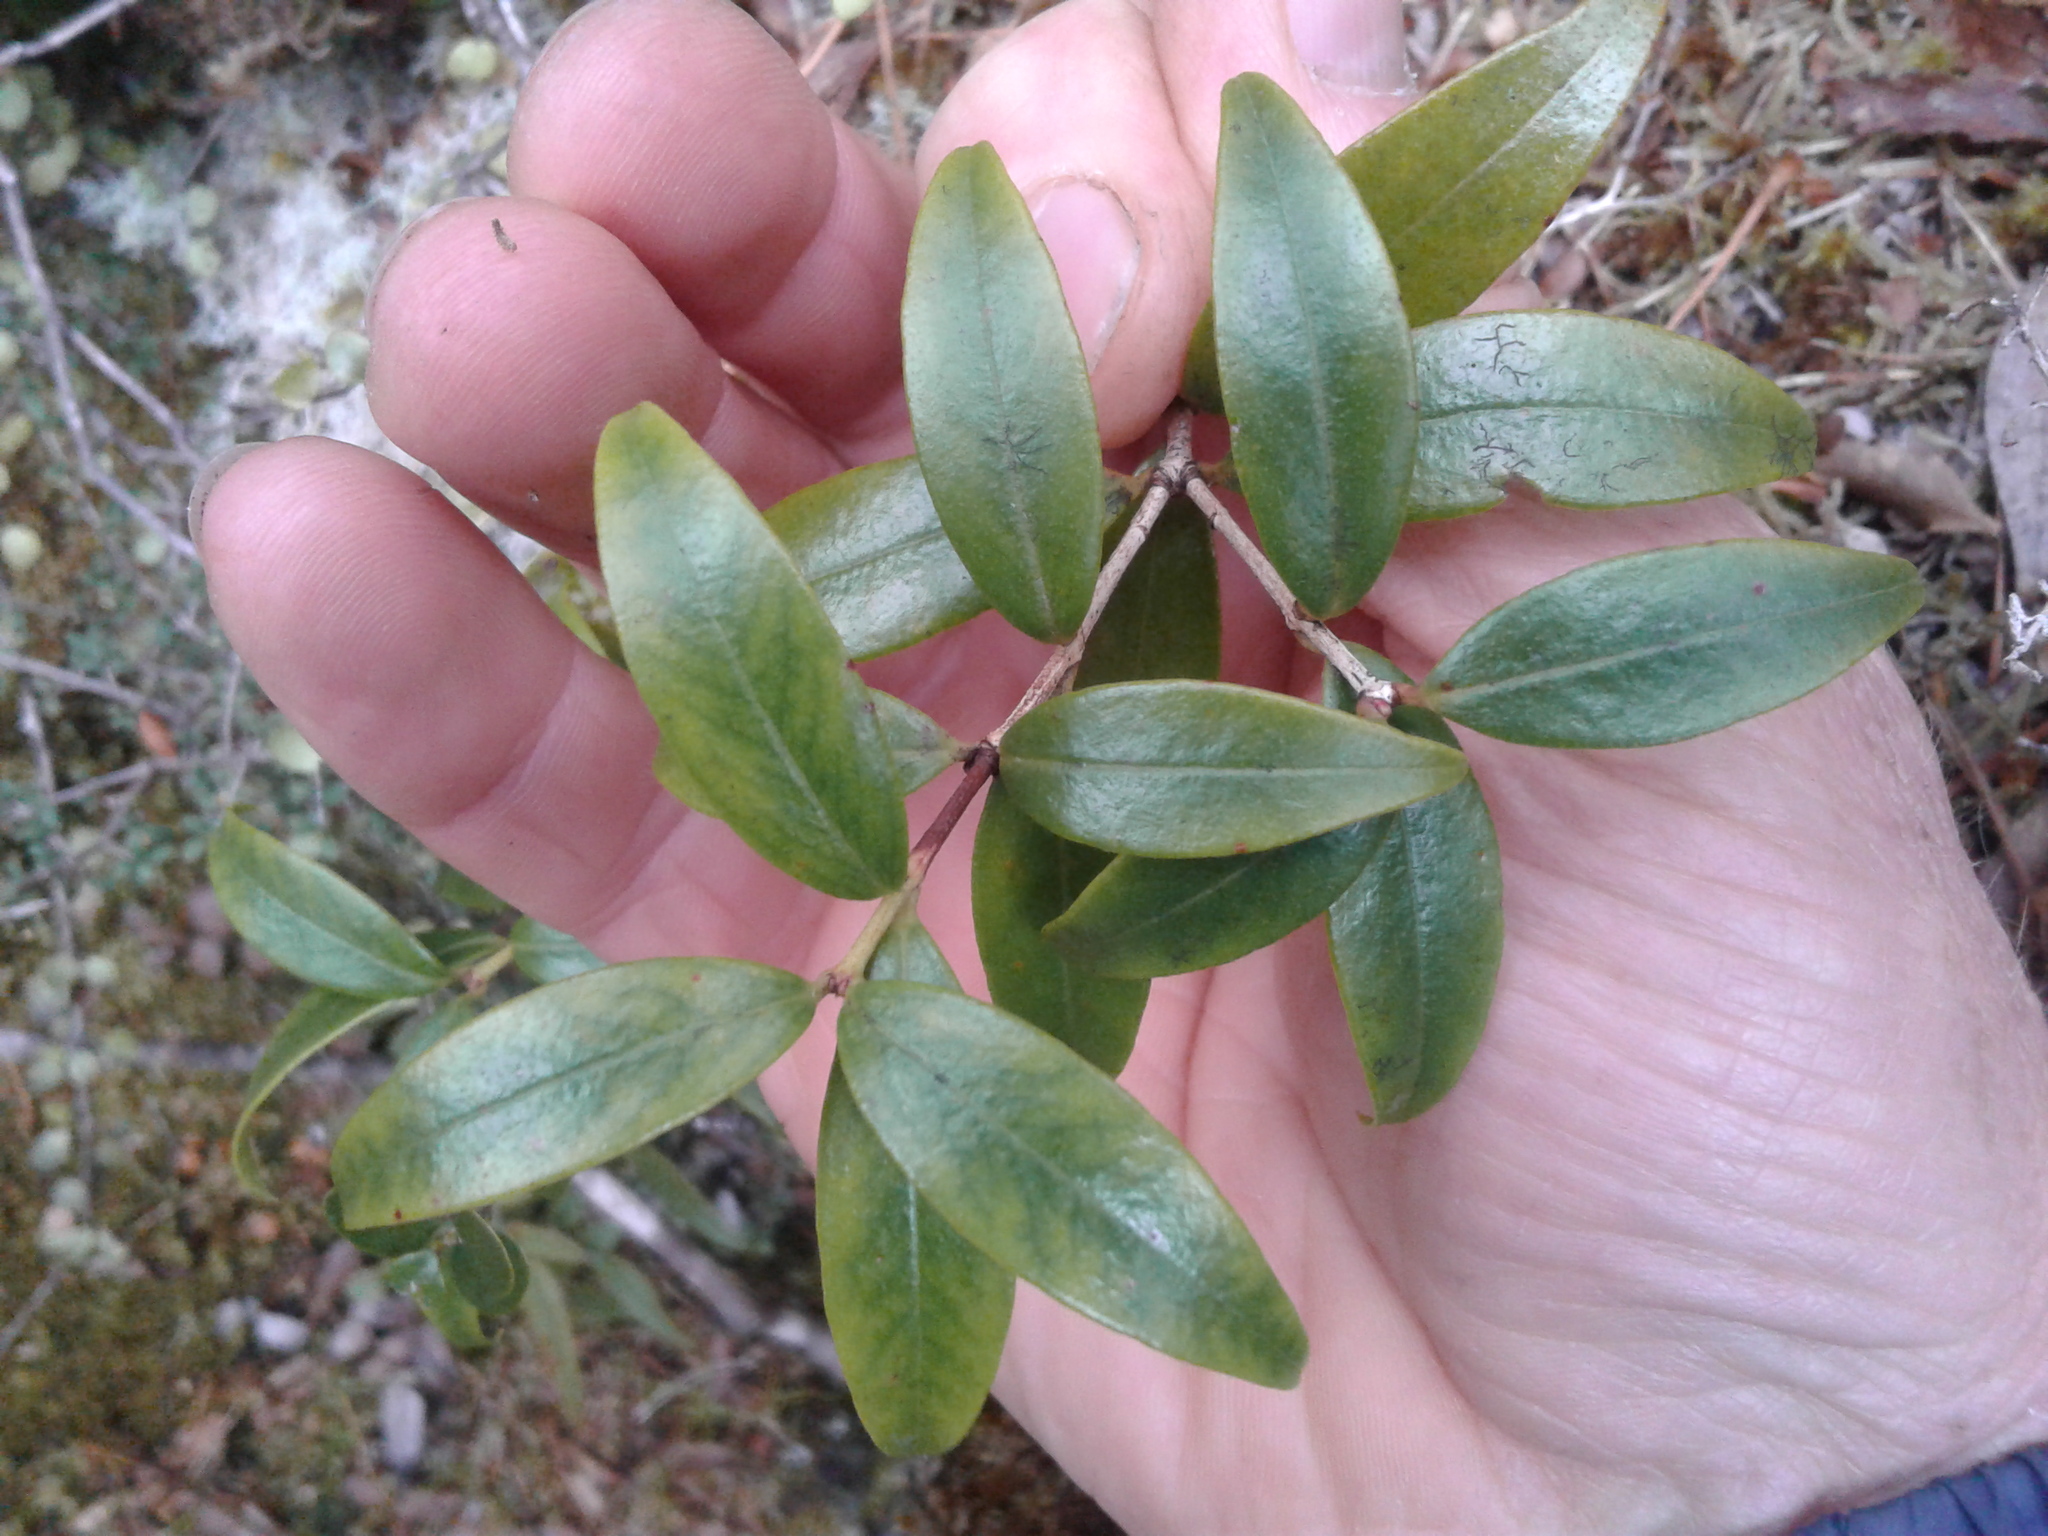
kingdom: Plantae
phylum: Tracheophyta
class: Magnoliopsida
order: Myrtales
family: Myrtaceae
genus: Metrosideros
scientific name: Metrosideros robusta
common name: Northern rata
